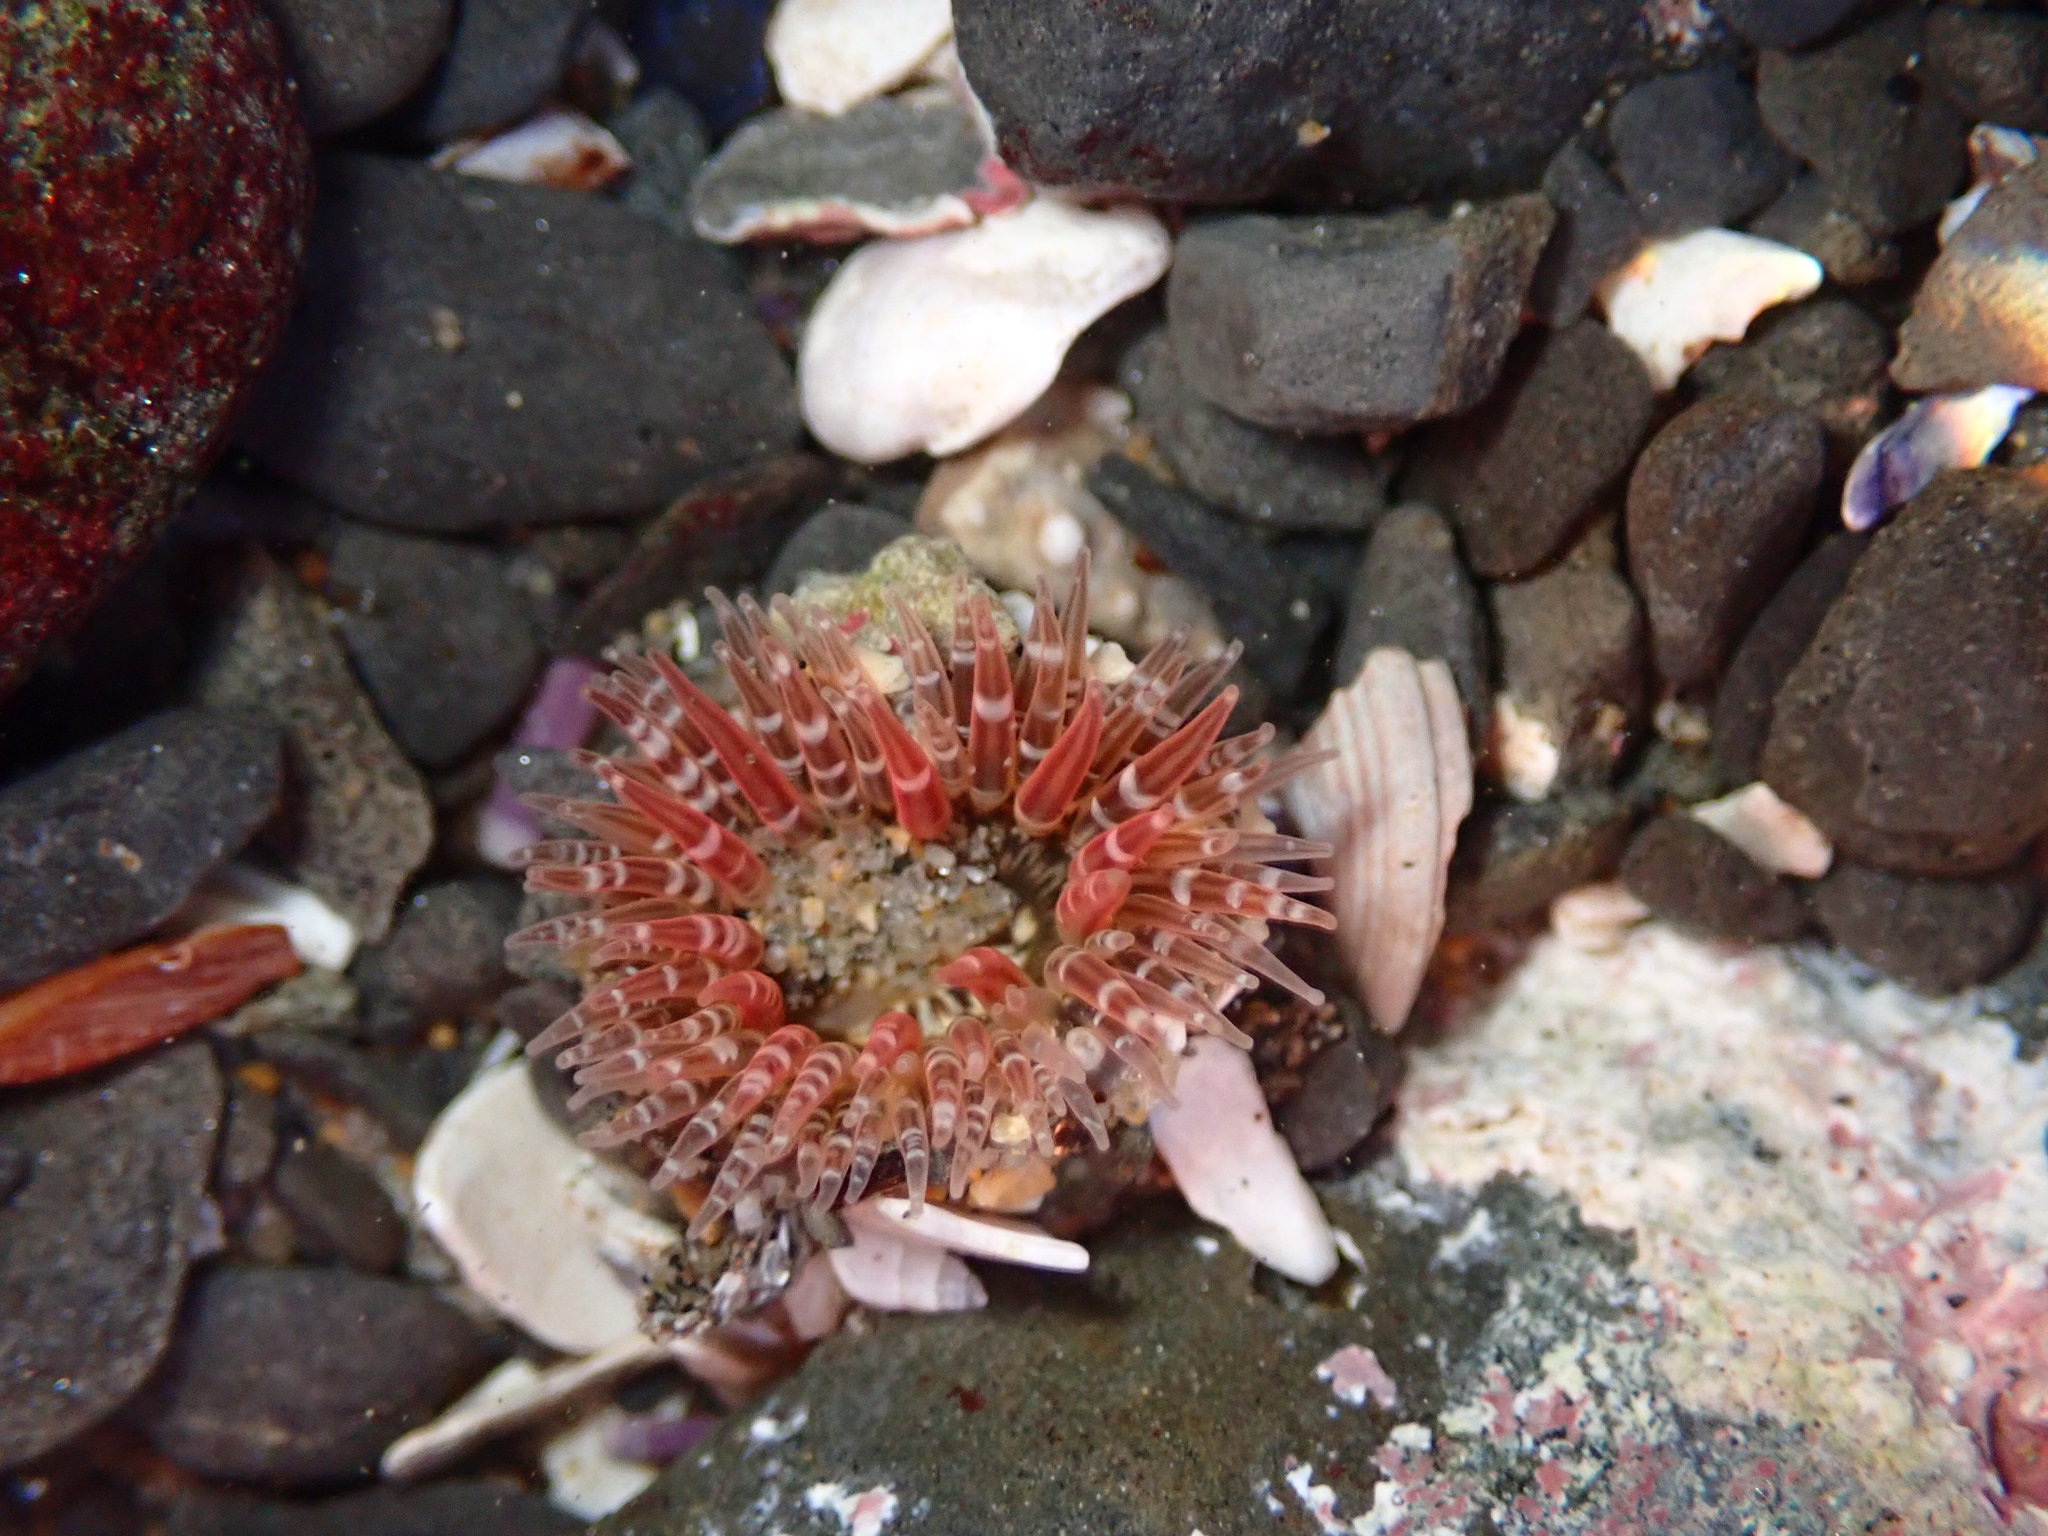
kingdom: Animalia
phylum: Cnidaria
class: Anthozoa
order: Actiniaria
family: Actiniidae
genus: Anthopleura
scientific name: Anthopleura artemisia
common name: Buried sea anemone
